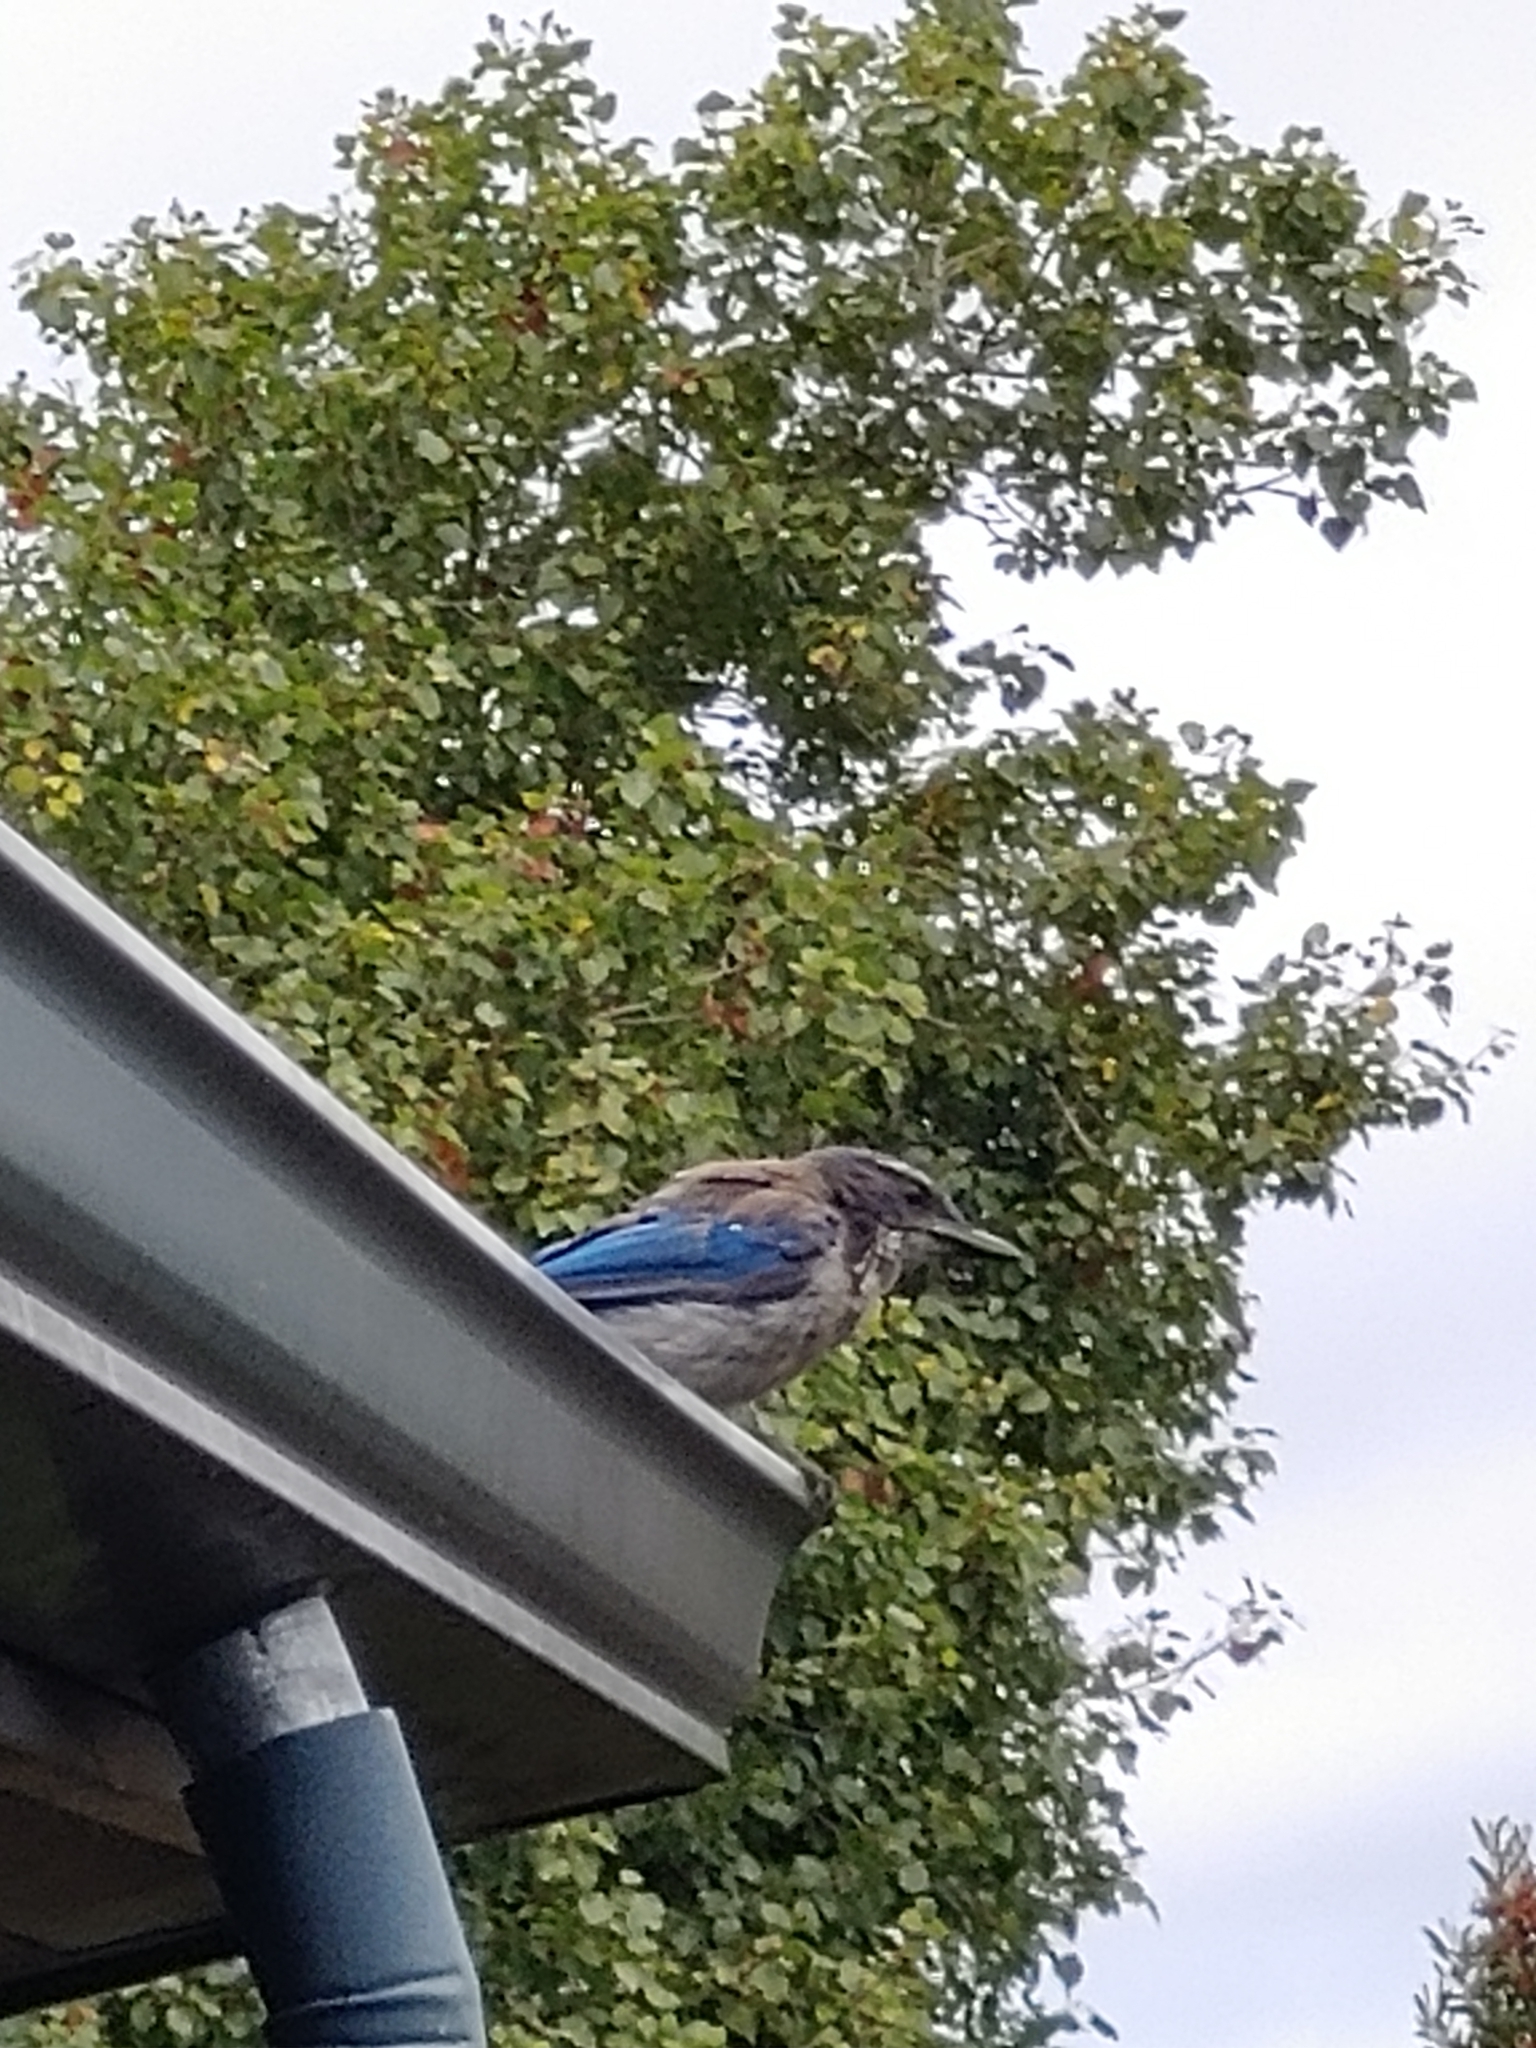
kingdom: Animalia
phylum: Chordata
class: Aves
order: Passeriformes
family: Corvidae
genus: Aphelocoma
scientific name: Aphelocoma californica
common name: California scrub-jay
